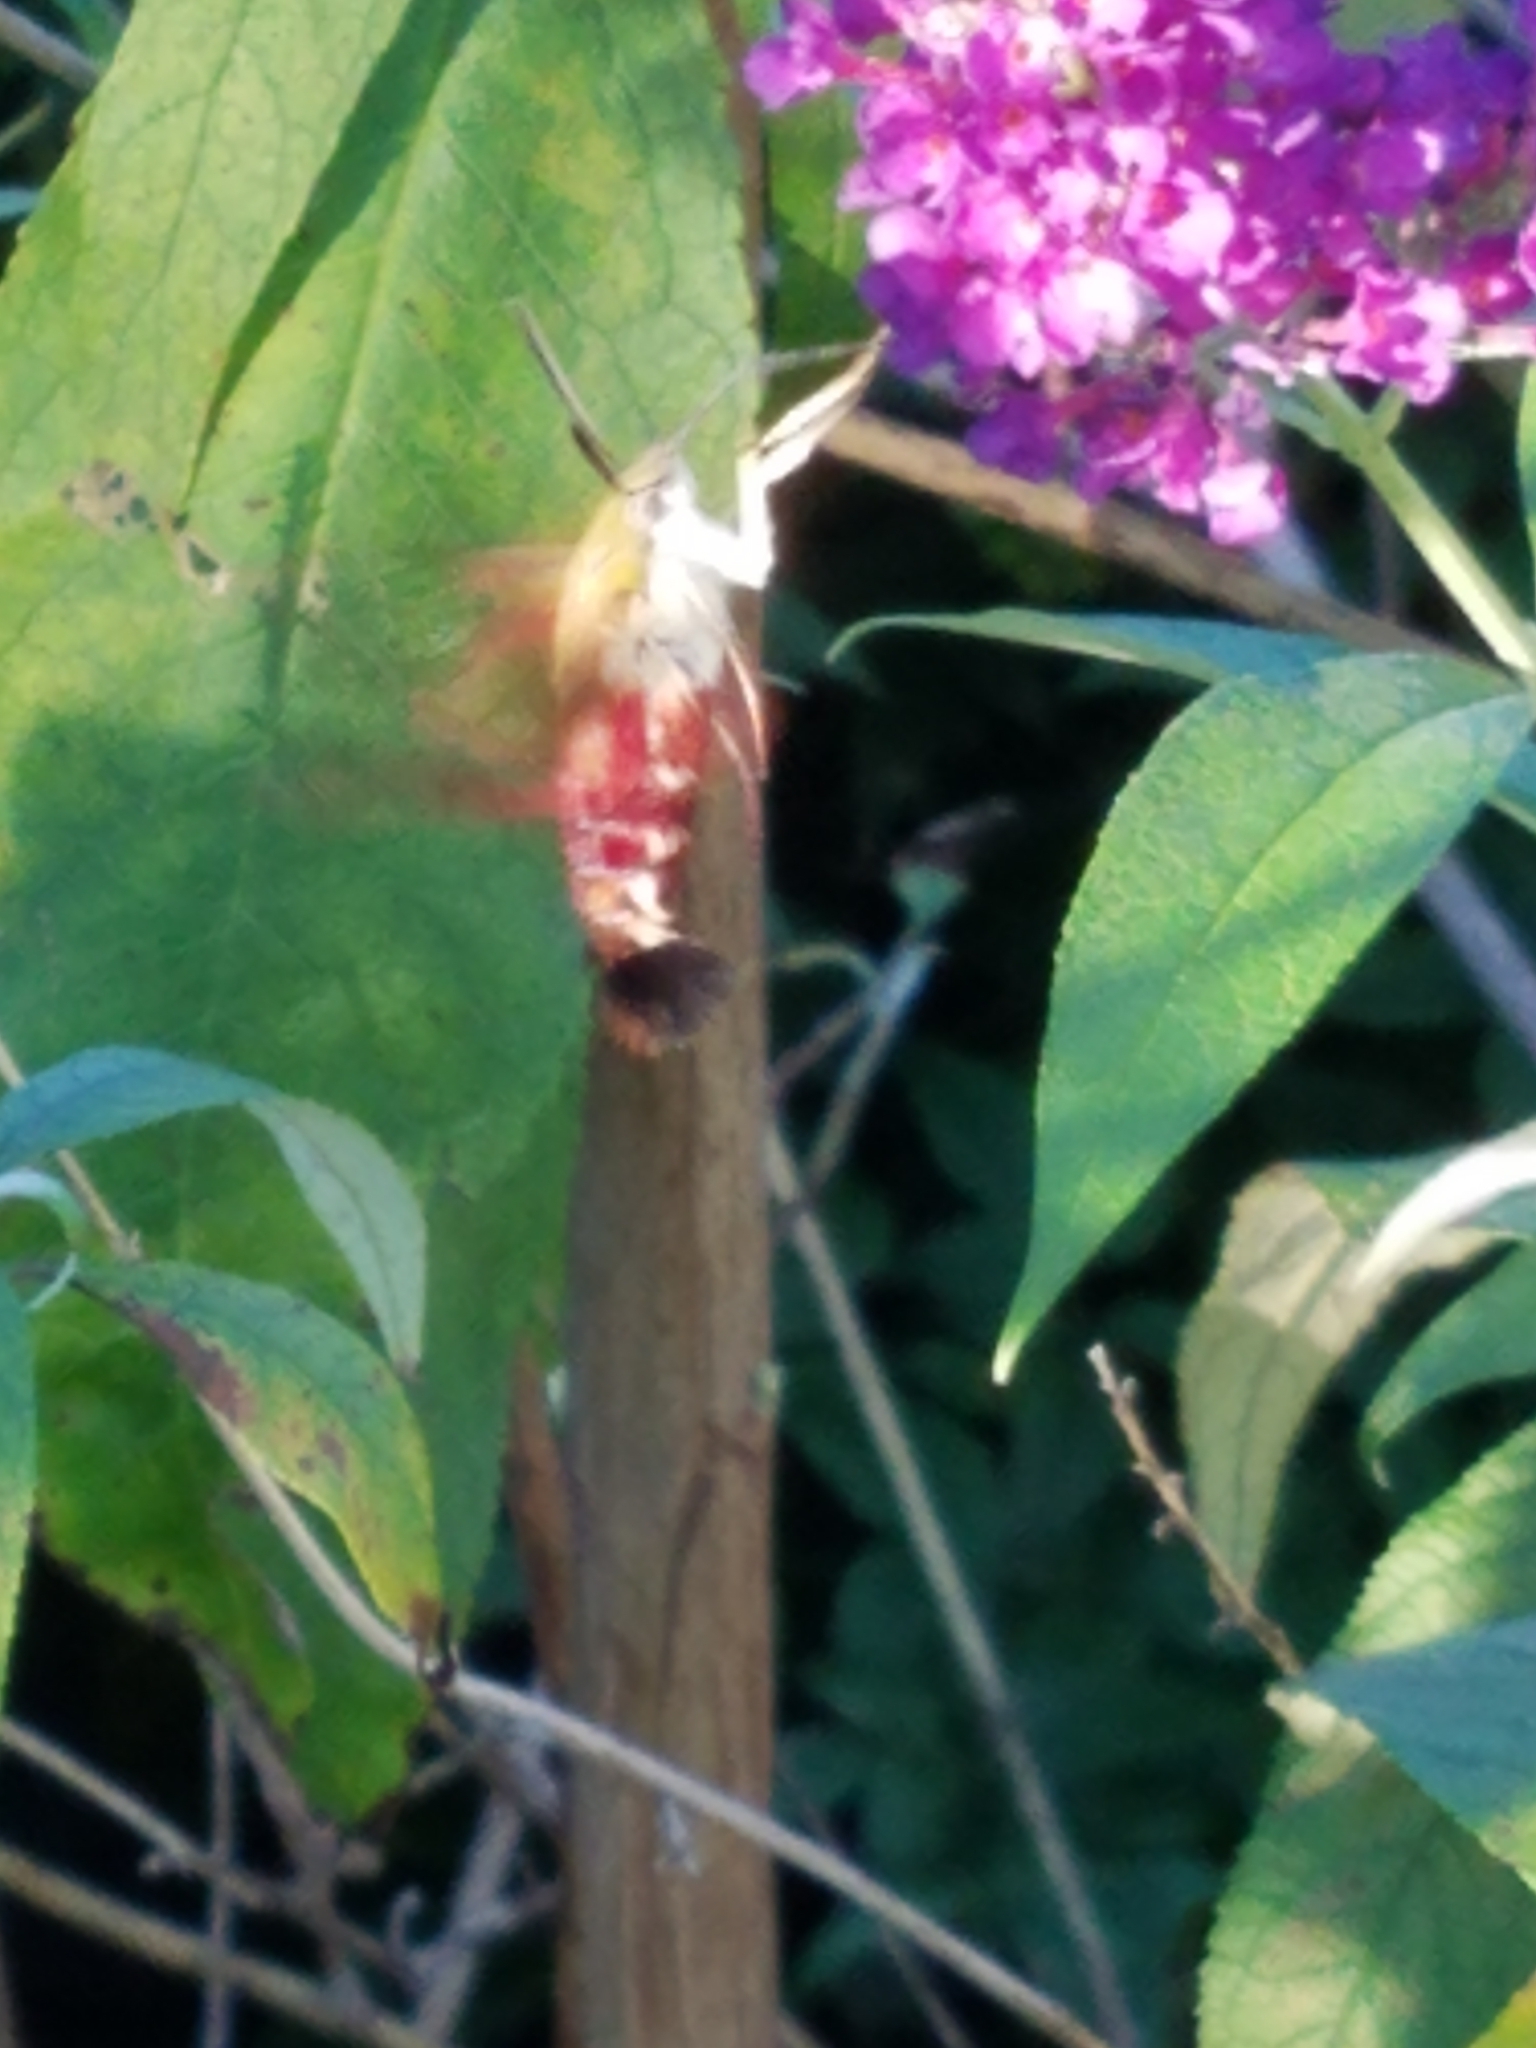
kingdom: Animalia
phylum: Arthropoda
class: Insecta
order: Lepidoptera
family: Sphingidae
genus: Hemaris
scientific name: Hemaris thysbe
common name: Common clear-wing
